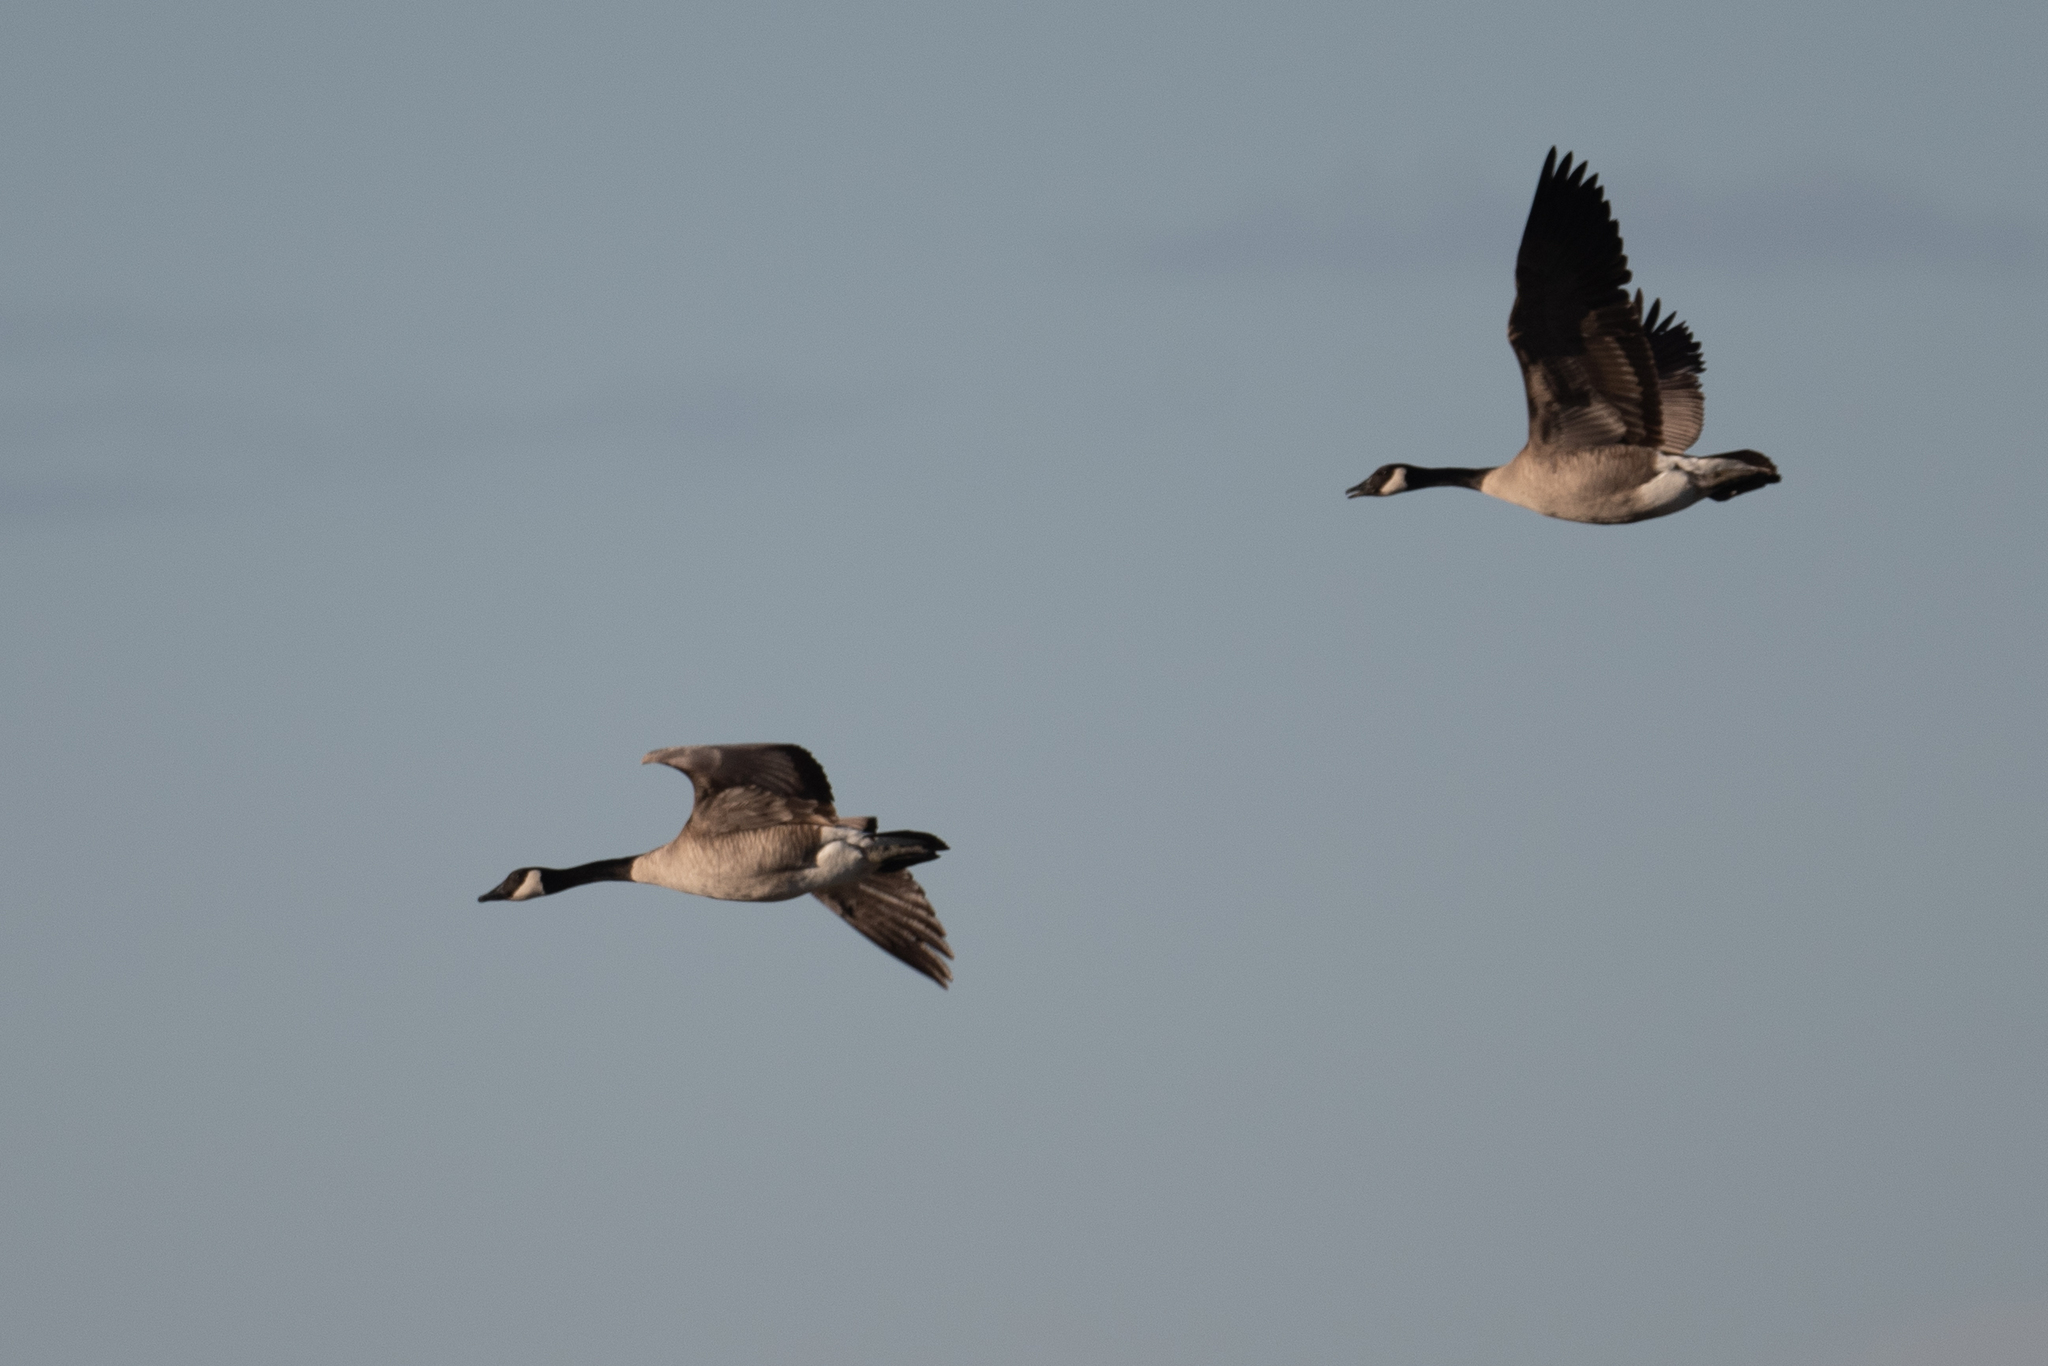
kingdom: Animalia
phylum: Chordata
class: Aves
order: Anseriformes
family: Anatidae
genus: Branta
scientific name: Branta canadensis
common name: Canada goose
